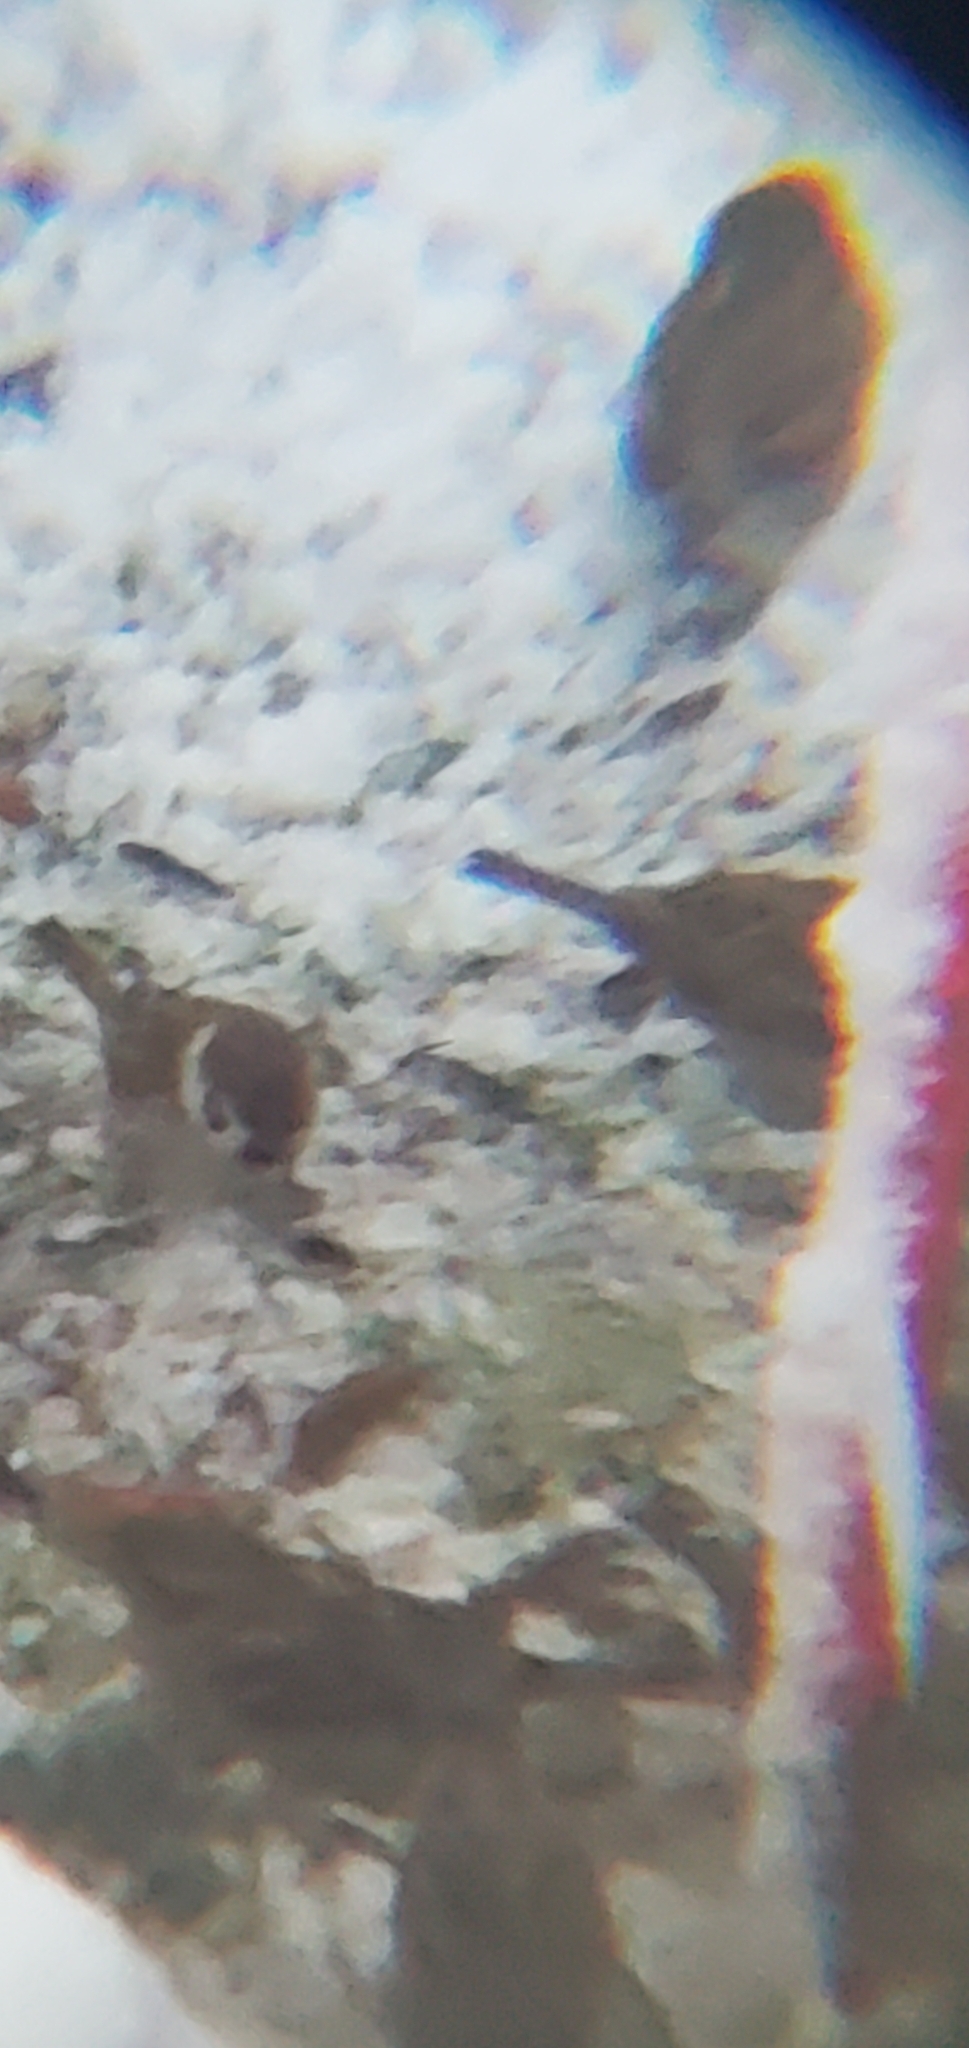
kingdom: Animalia
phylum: Chordata
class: Aves
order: Passeriformes
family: Passeridae
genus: Passer
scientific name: Passer montanus
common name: Eurasian tree sparrow
